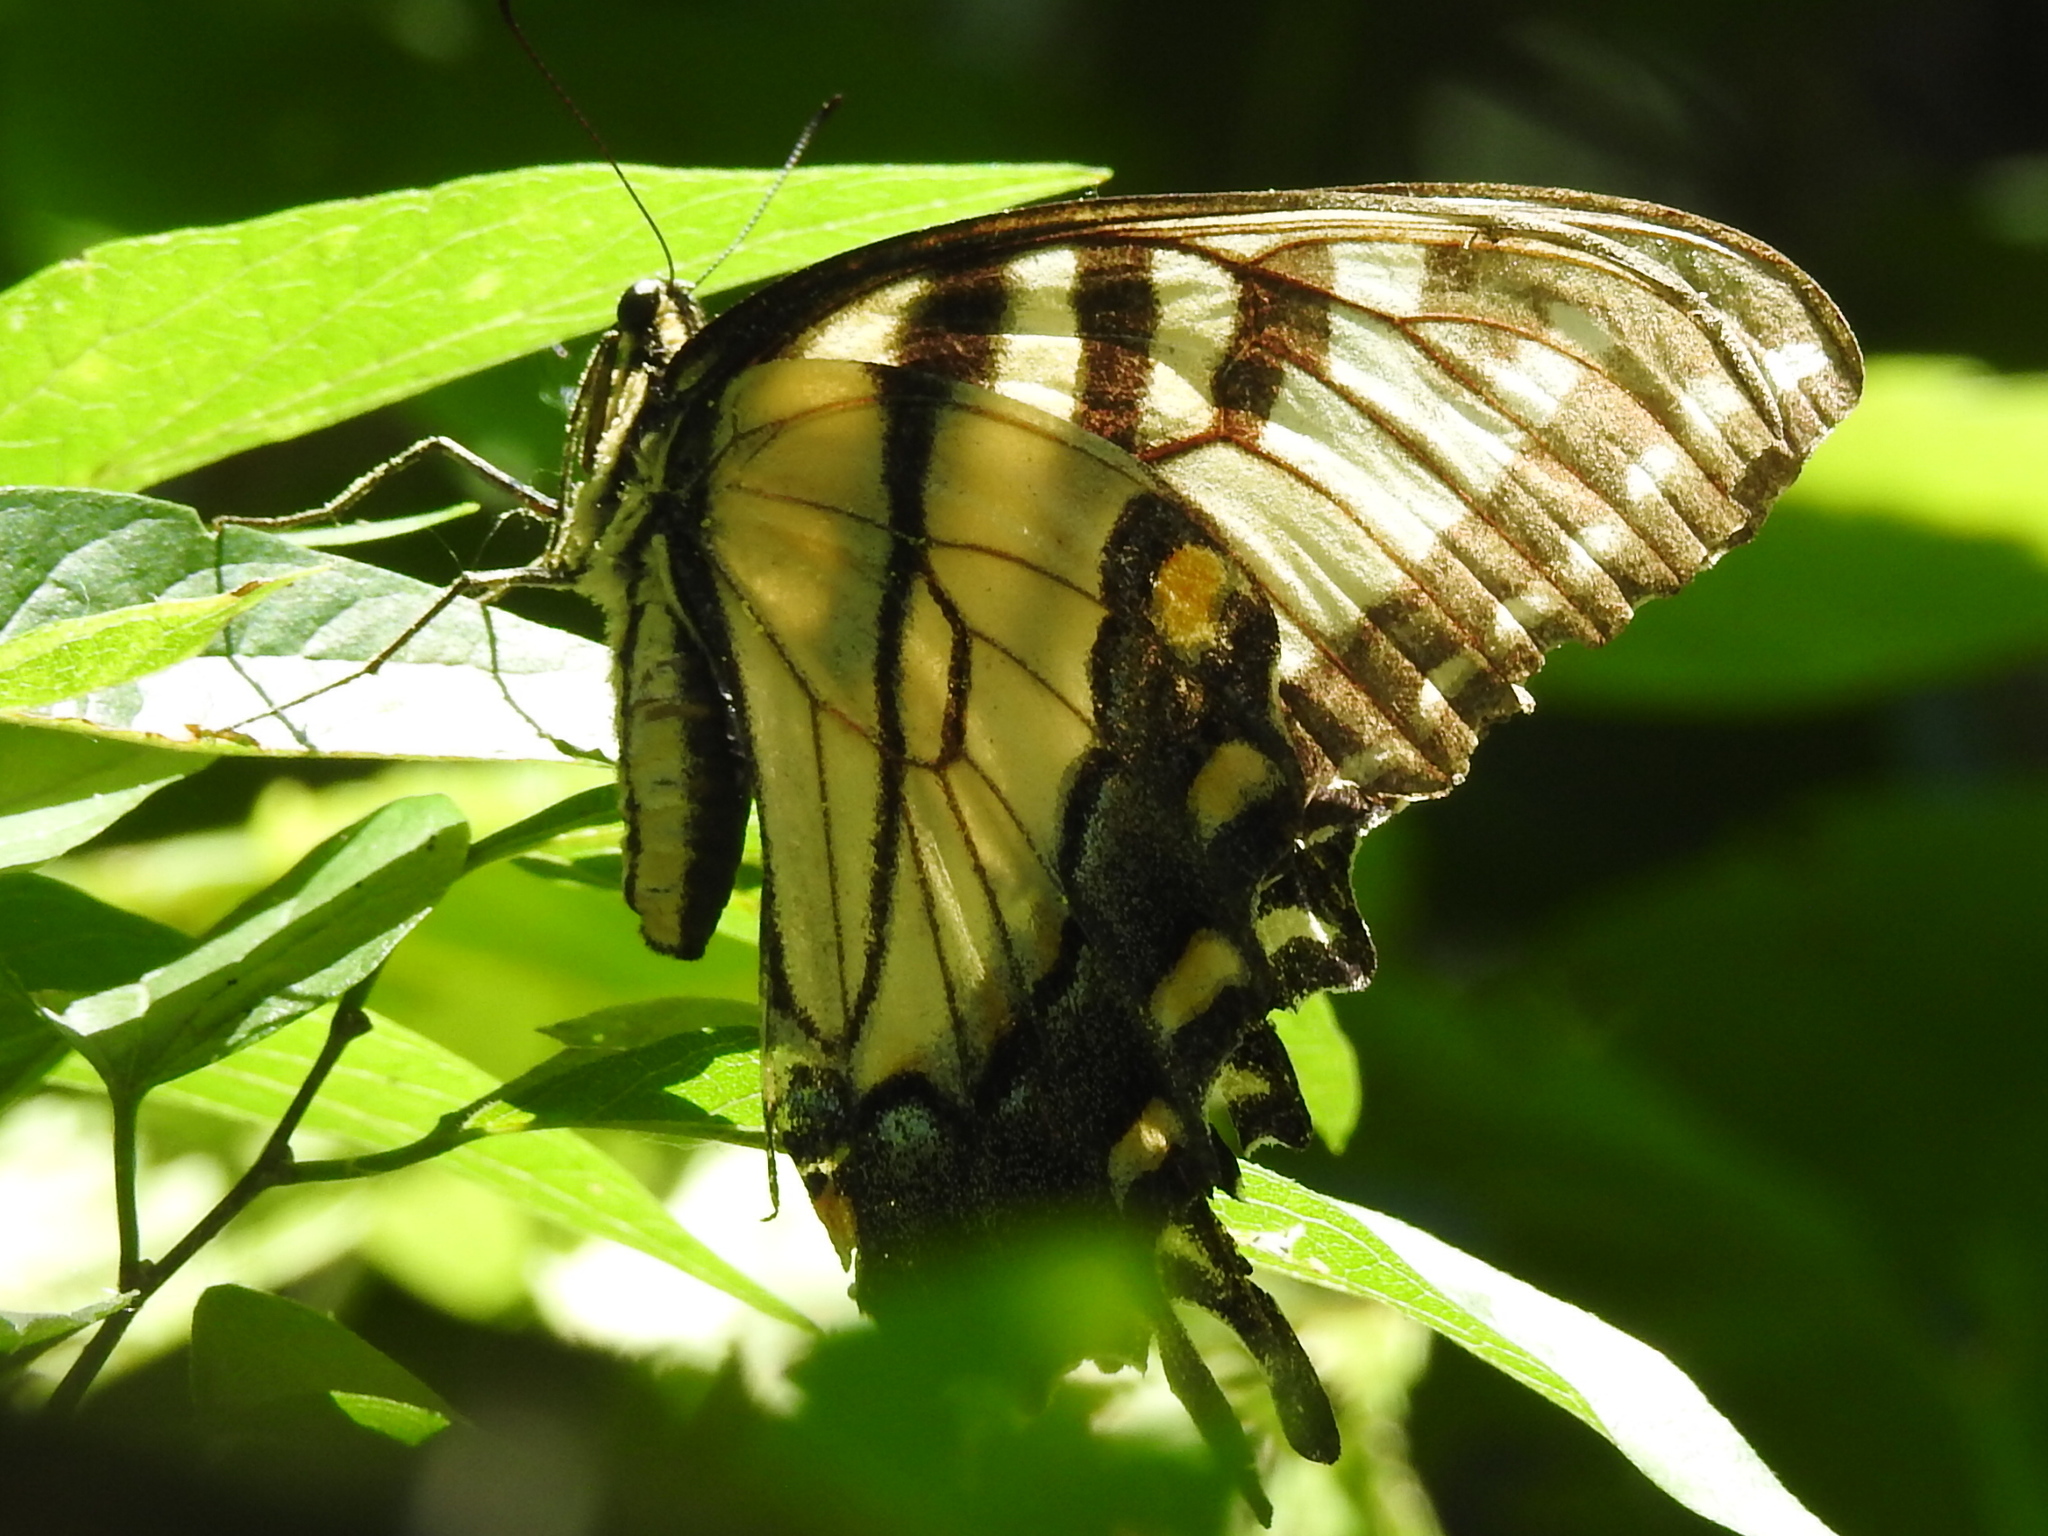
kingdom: Animalia
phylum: Arthropoda
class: Insecta
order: Lepidoptera
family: Papilionidae
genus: Papilio
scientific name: Papilio glaucus
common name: Tiger swallowtail
